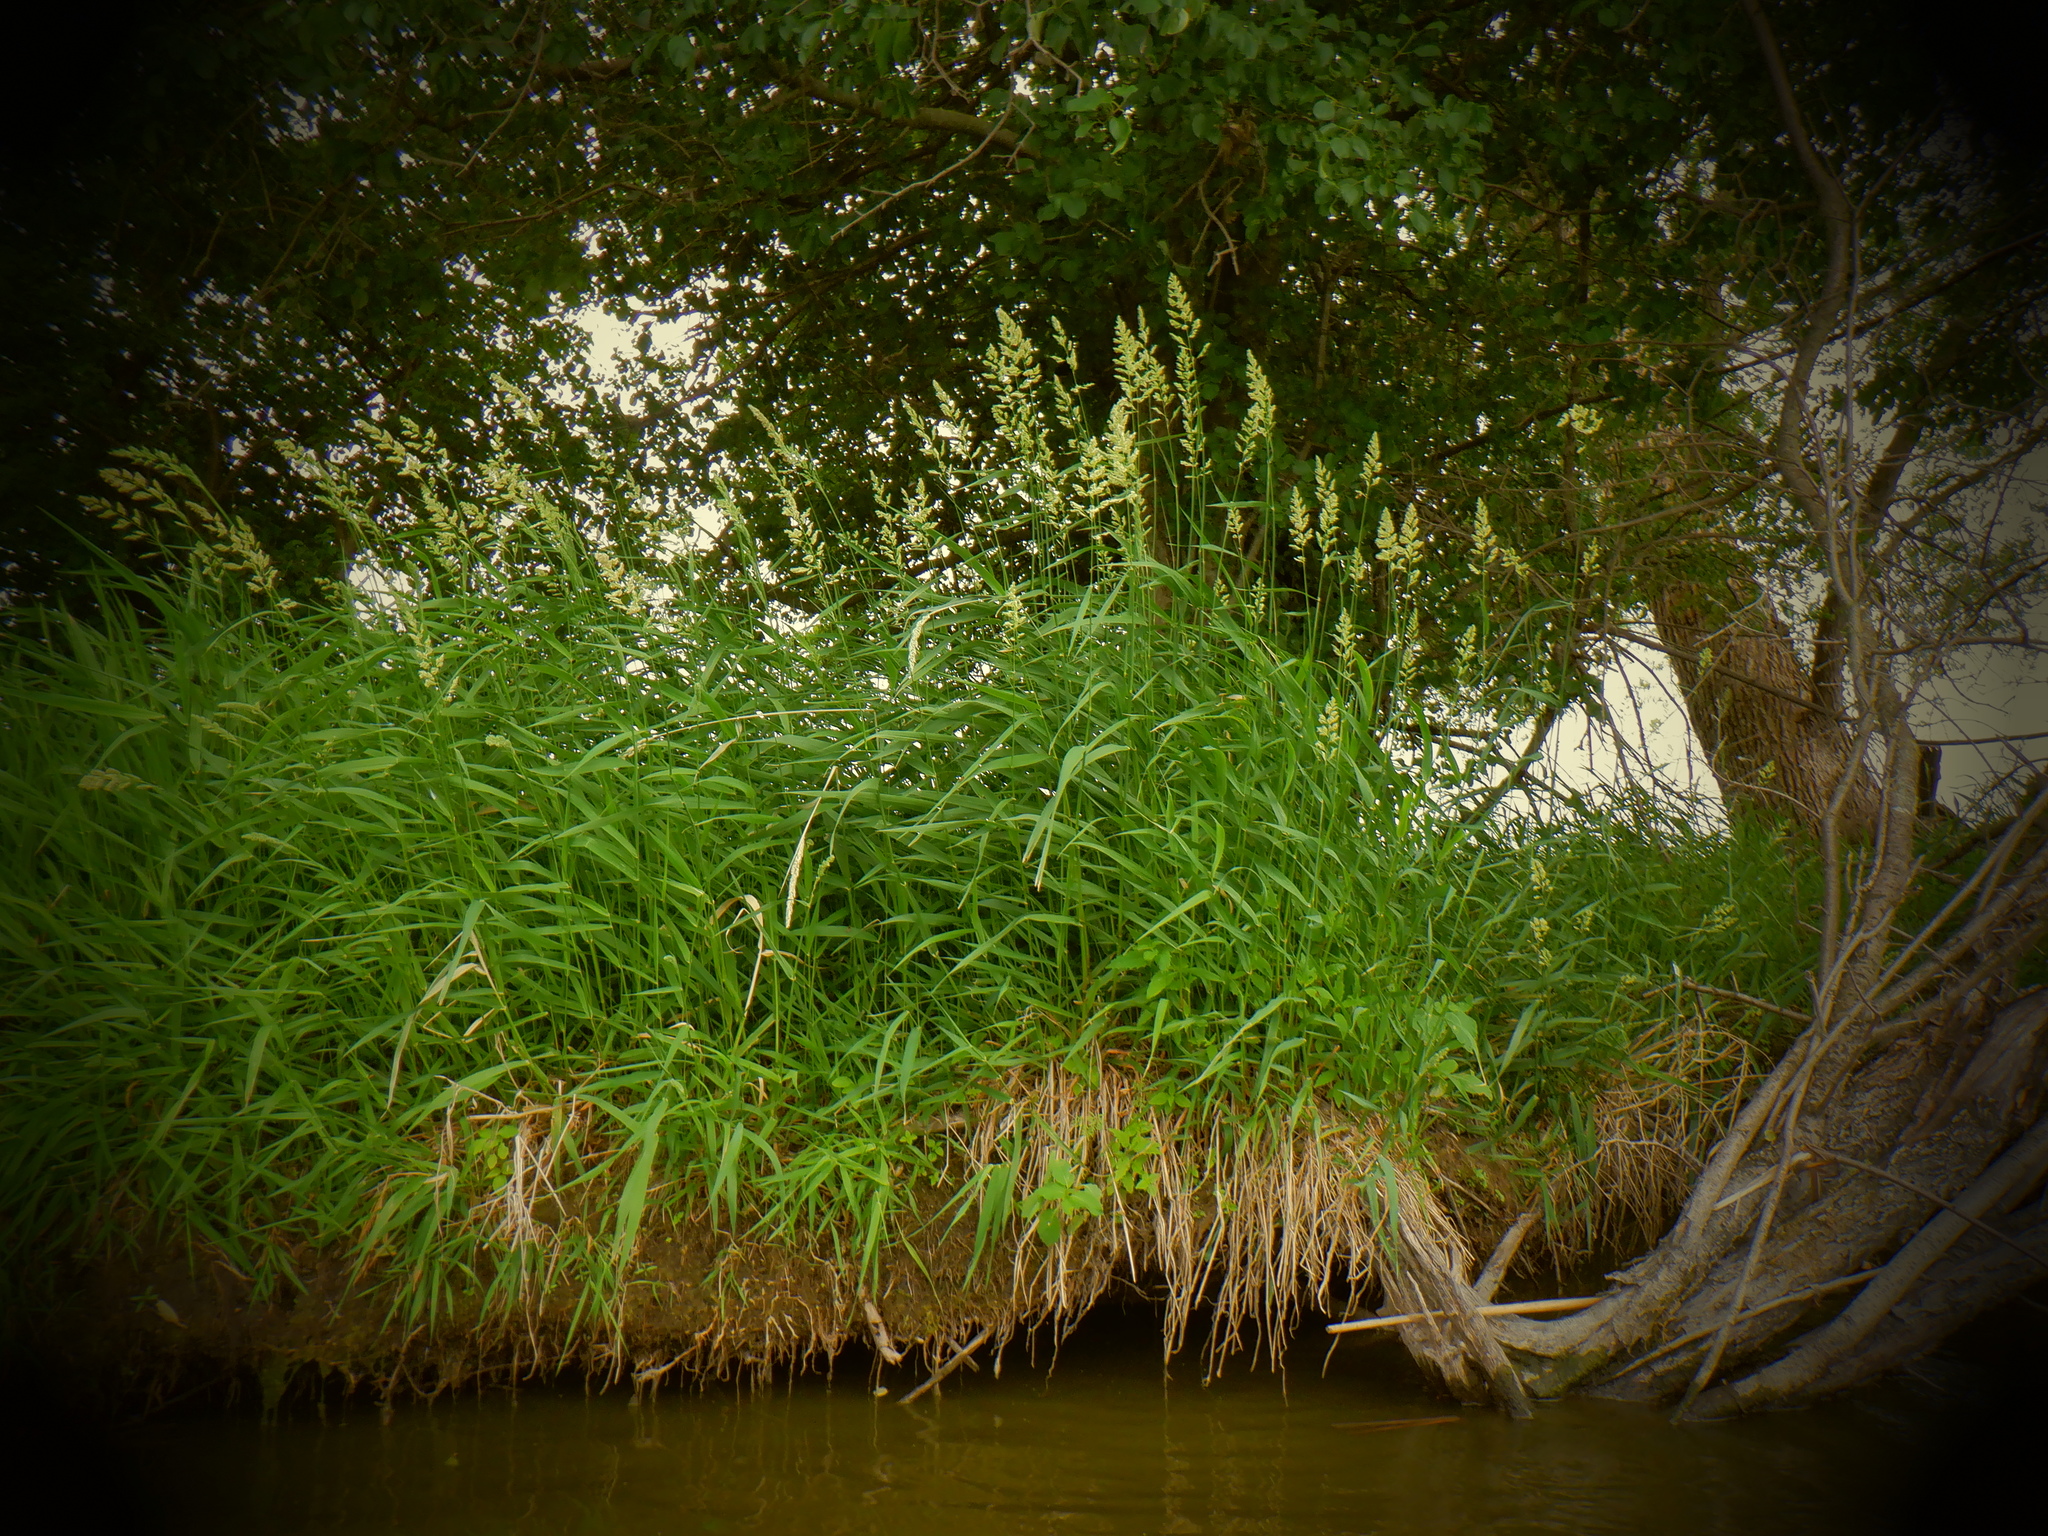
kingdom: Plantae
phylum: Tracheophyta
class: Liliopsida
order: Poales
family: Poaceae
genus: Phalaris
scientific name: Phalaris arundinacea
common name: Reed canary-grass
